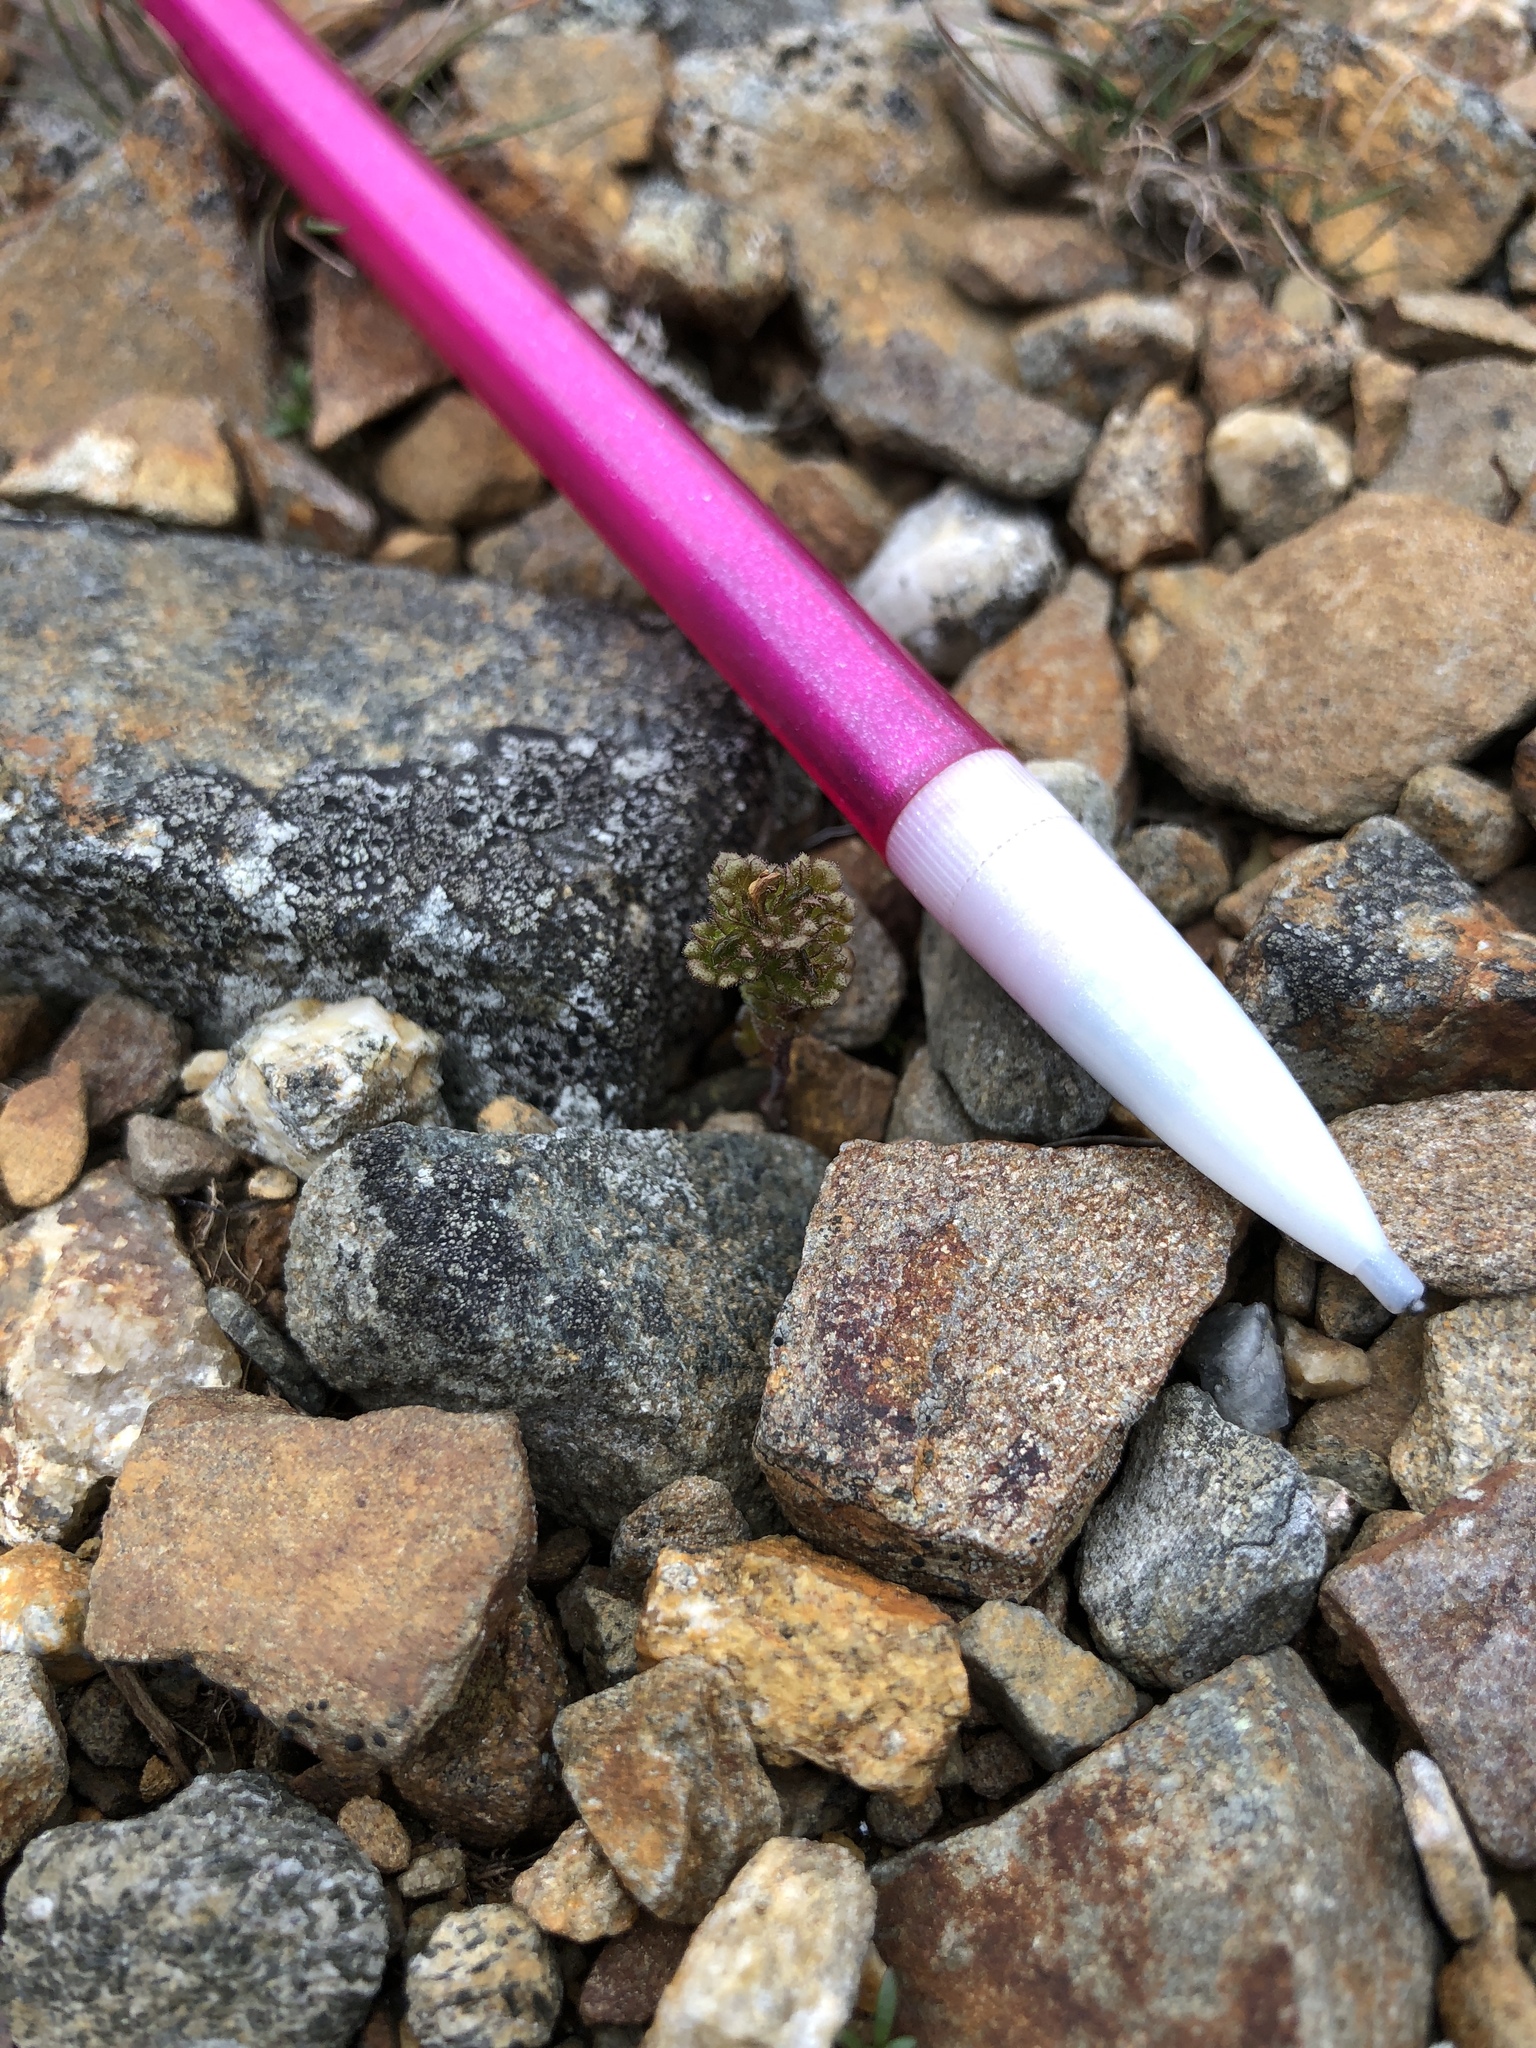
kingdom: Plantae
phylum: Tracheophyta
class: Magnoliopsida
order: Lamiales
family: Orobanchaceae
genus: Euphrasia
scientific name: Euphrasia oakesii
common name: Oakes' eyebright
